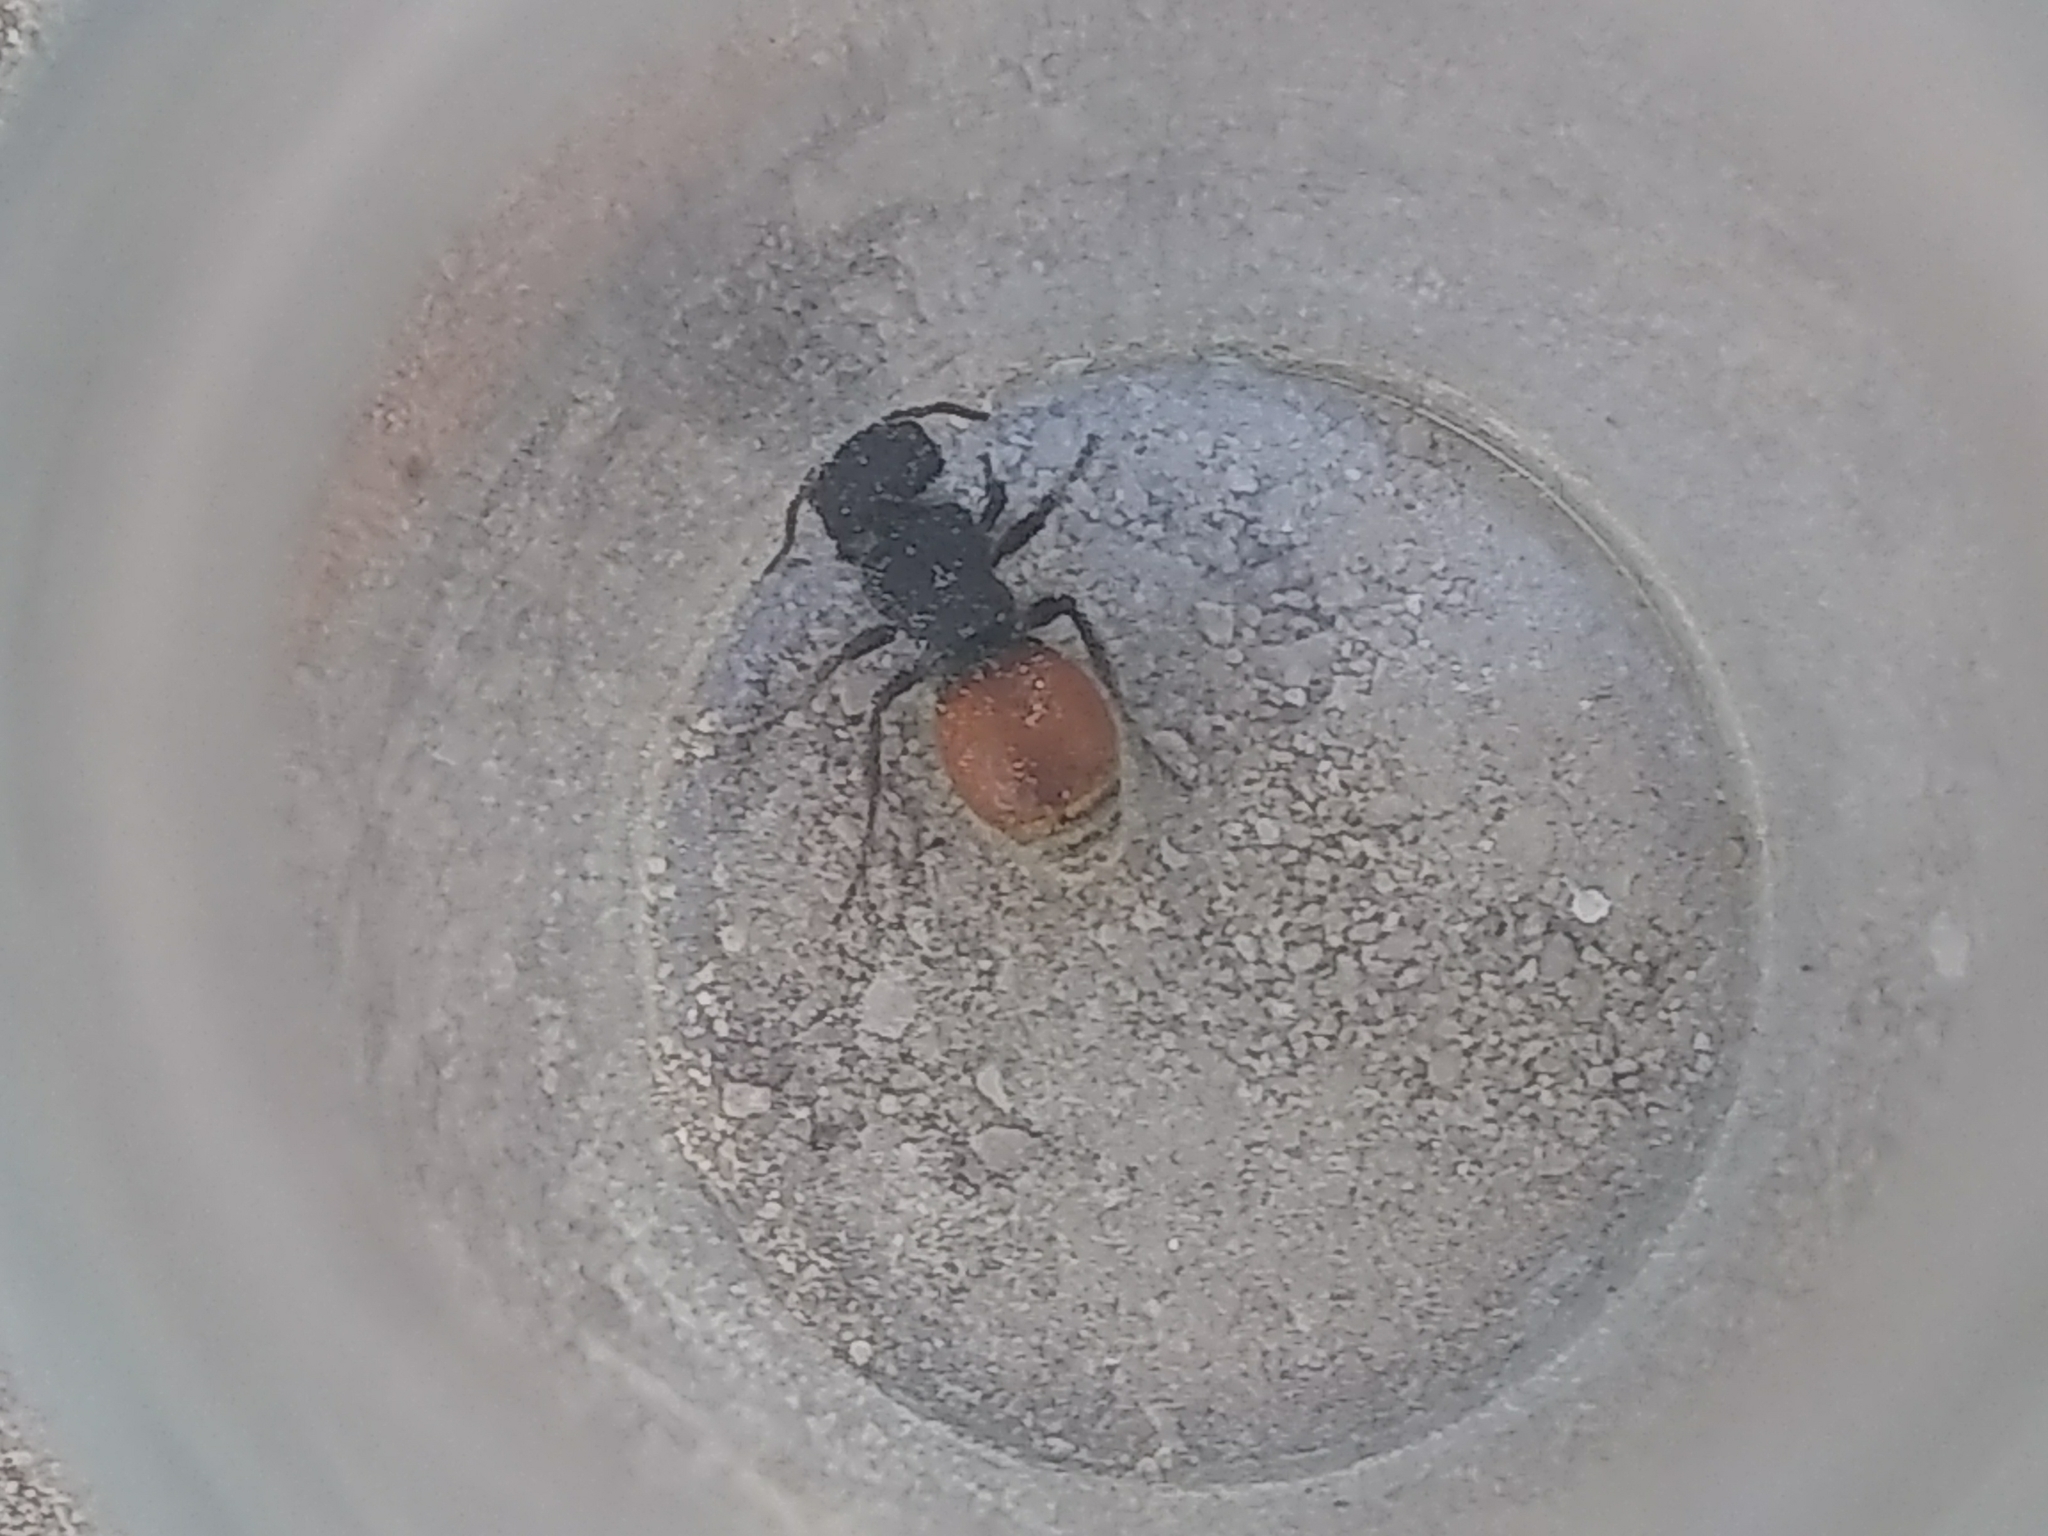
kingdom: Animalia
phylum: Arthropoda
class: Insecta
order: Hymenoptera
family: Mutillidae
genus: Pseudomethoca
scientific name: Pseudomethoca
